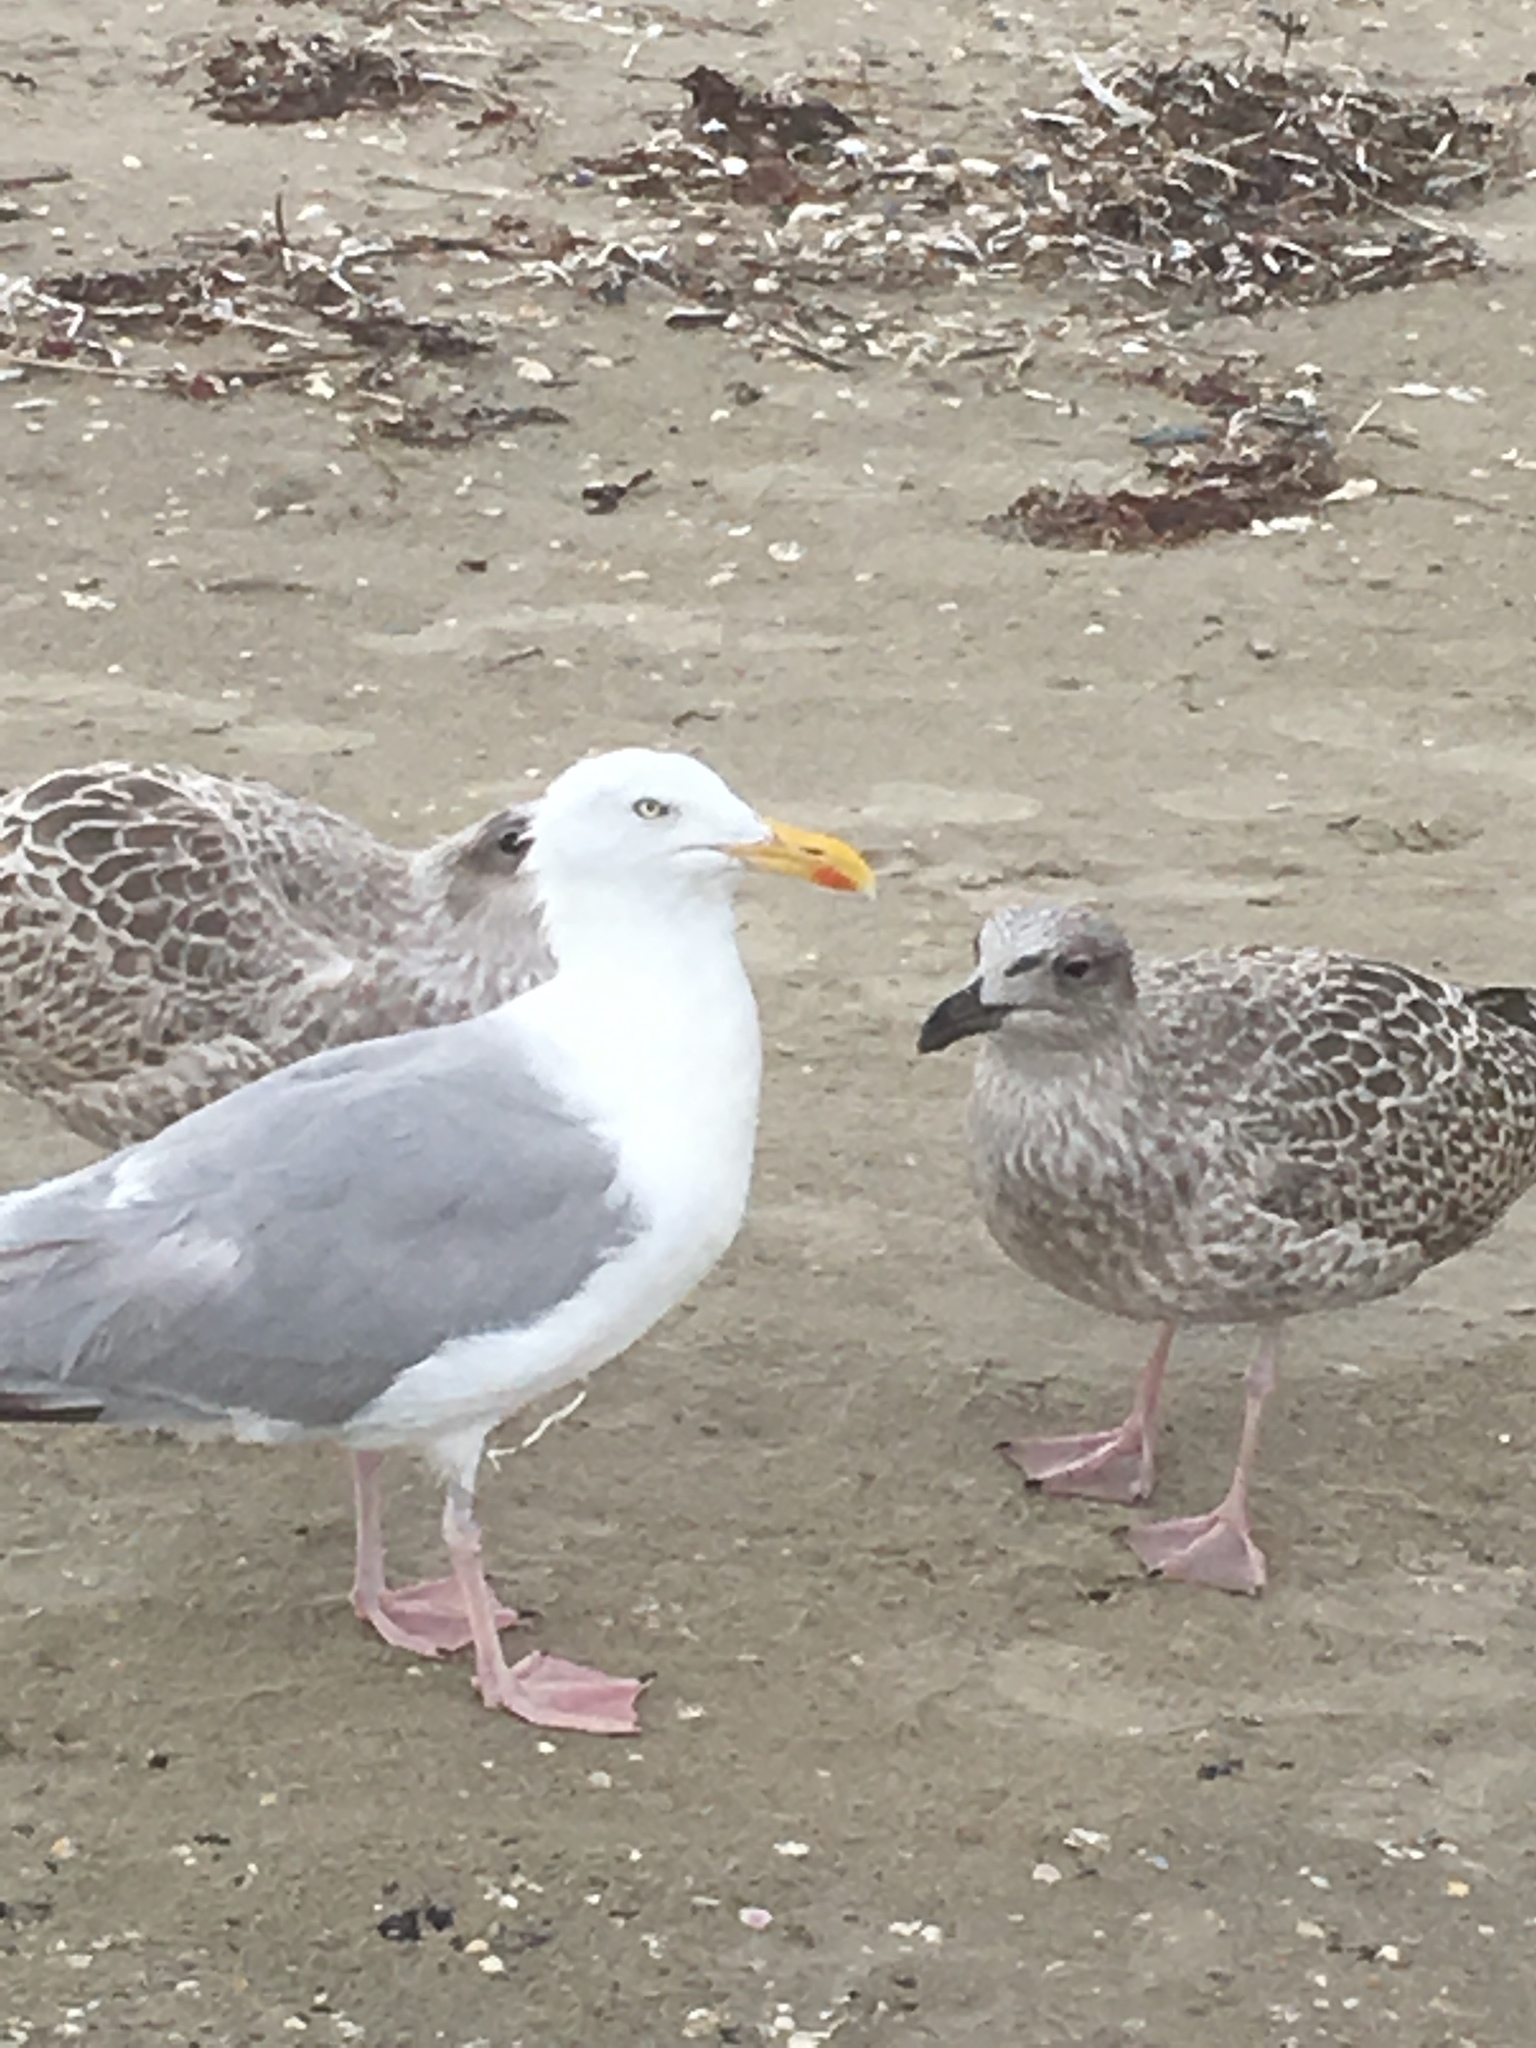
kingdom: Animalia
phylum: Chordata
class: Aves
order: Charadriiformes
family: Laridae
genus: Larus
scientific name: Larus argentatus
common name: Herring gull
